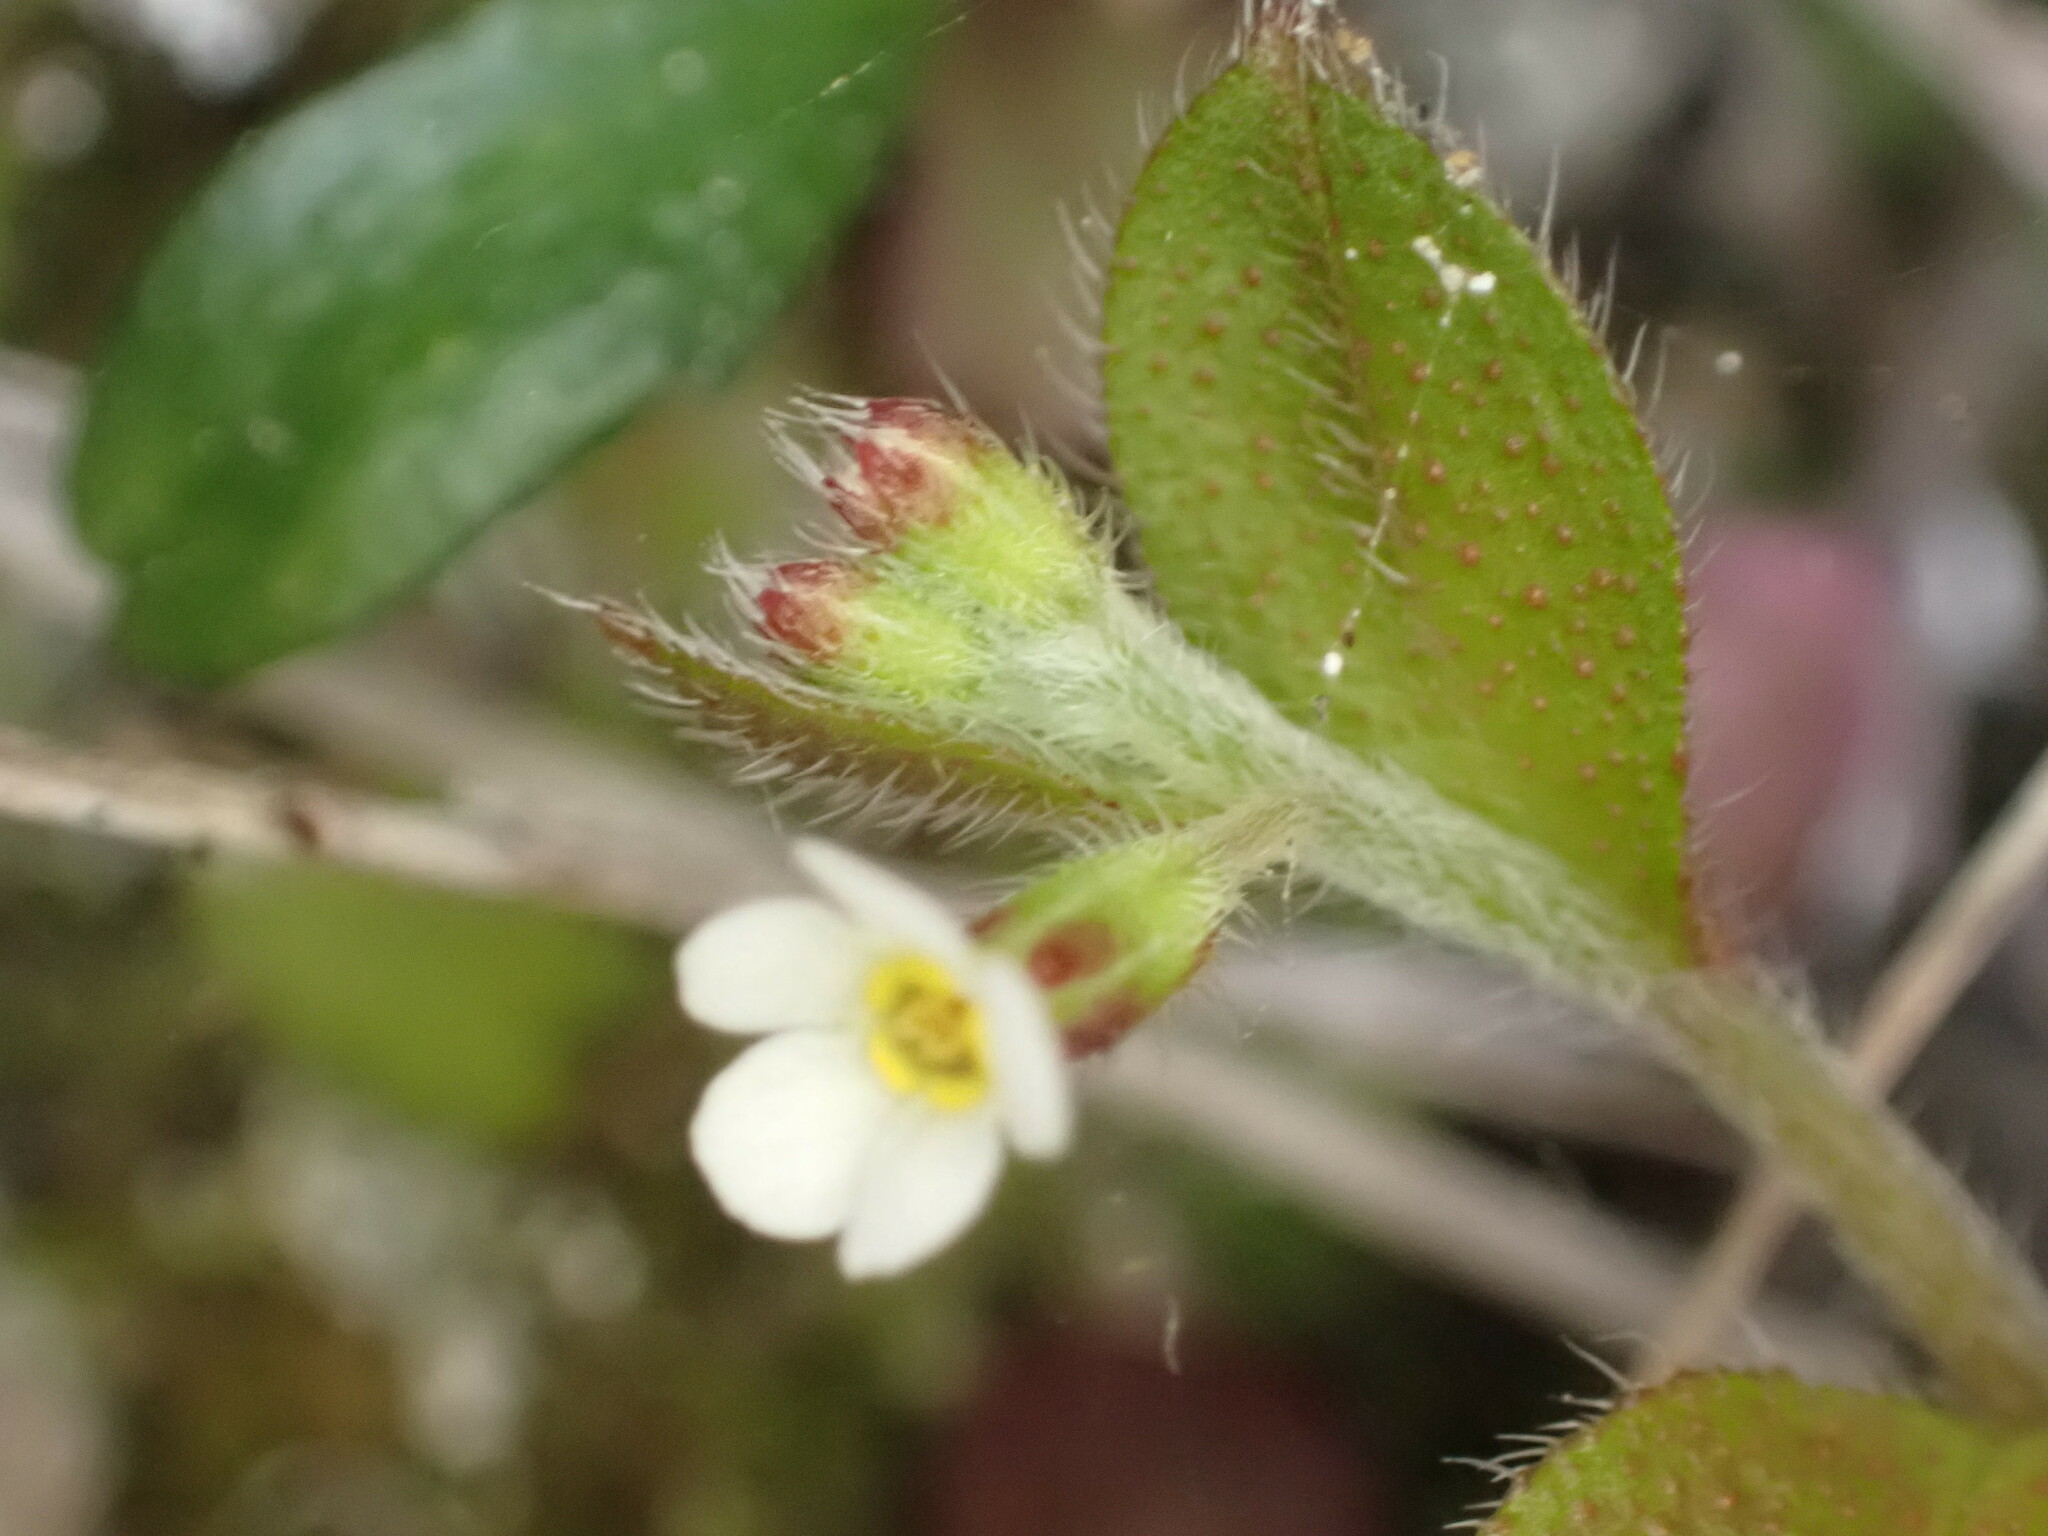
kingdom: Plantae
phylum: Tracheophyta
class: Magnoliopsida
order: Boraginales
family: Boraginaceae
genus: Myosotis
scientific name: Myosotis forsteri
